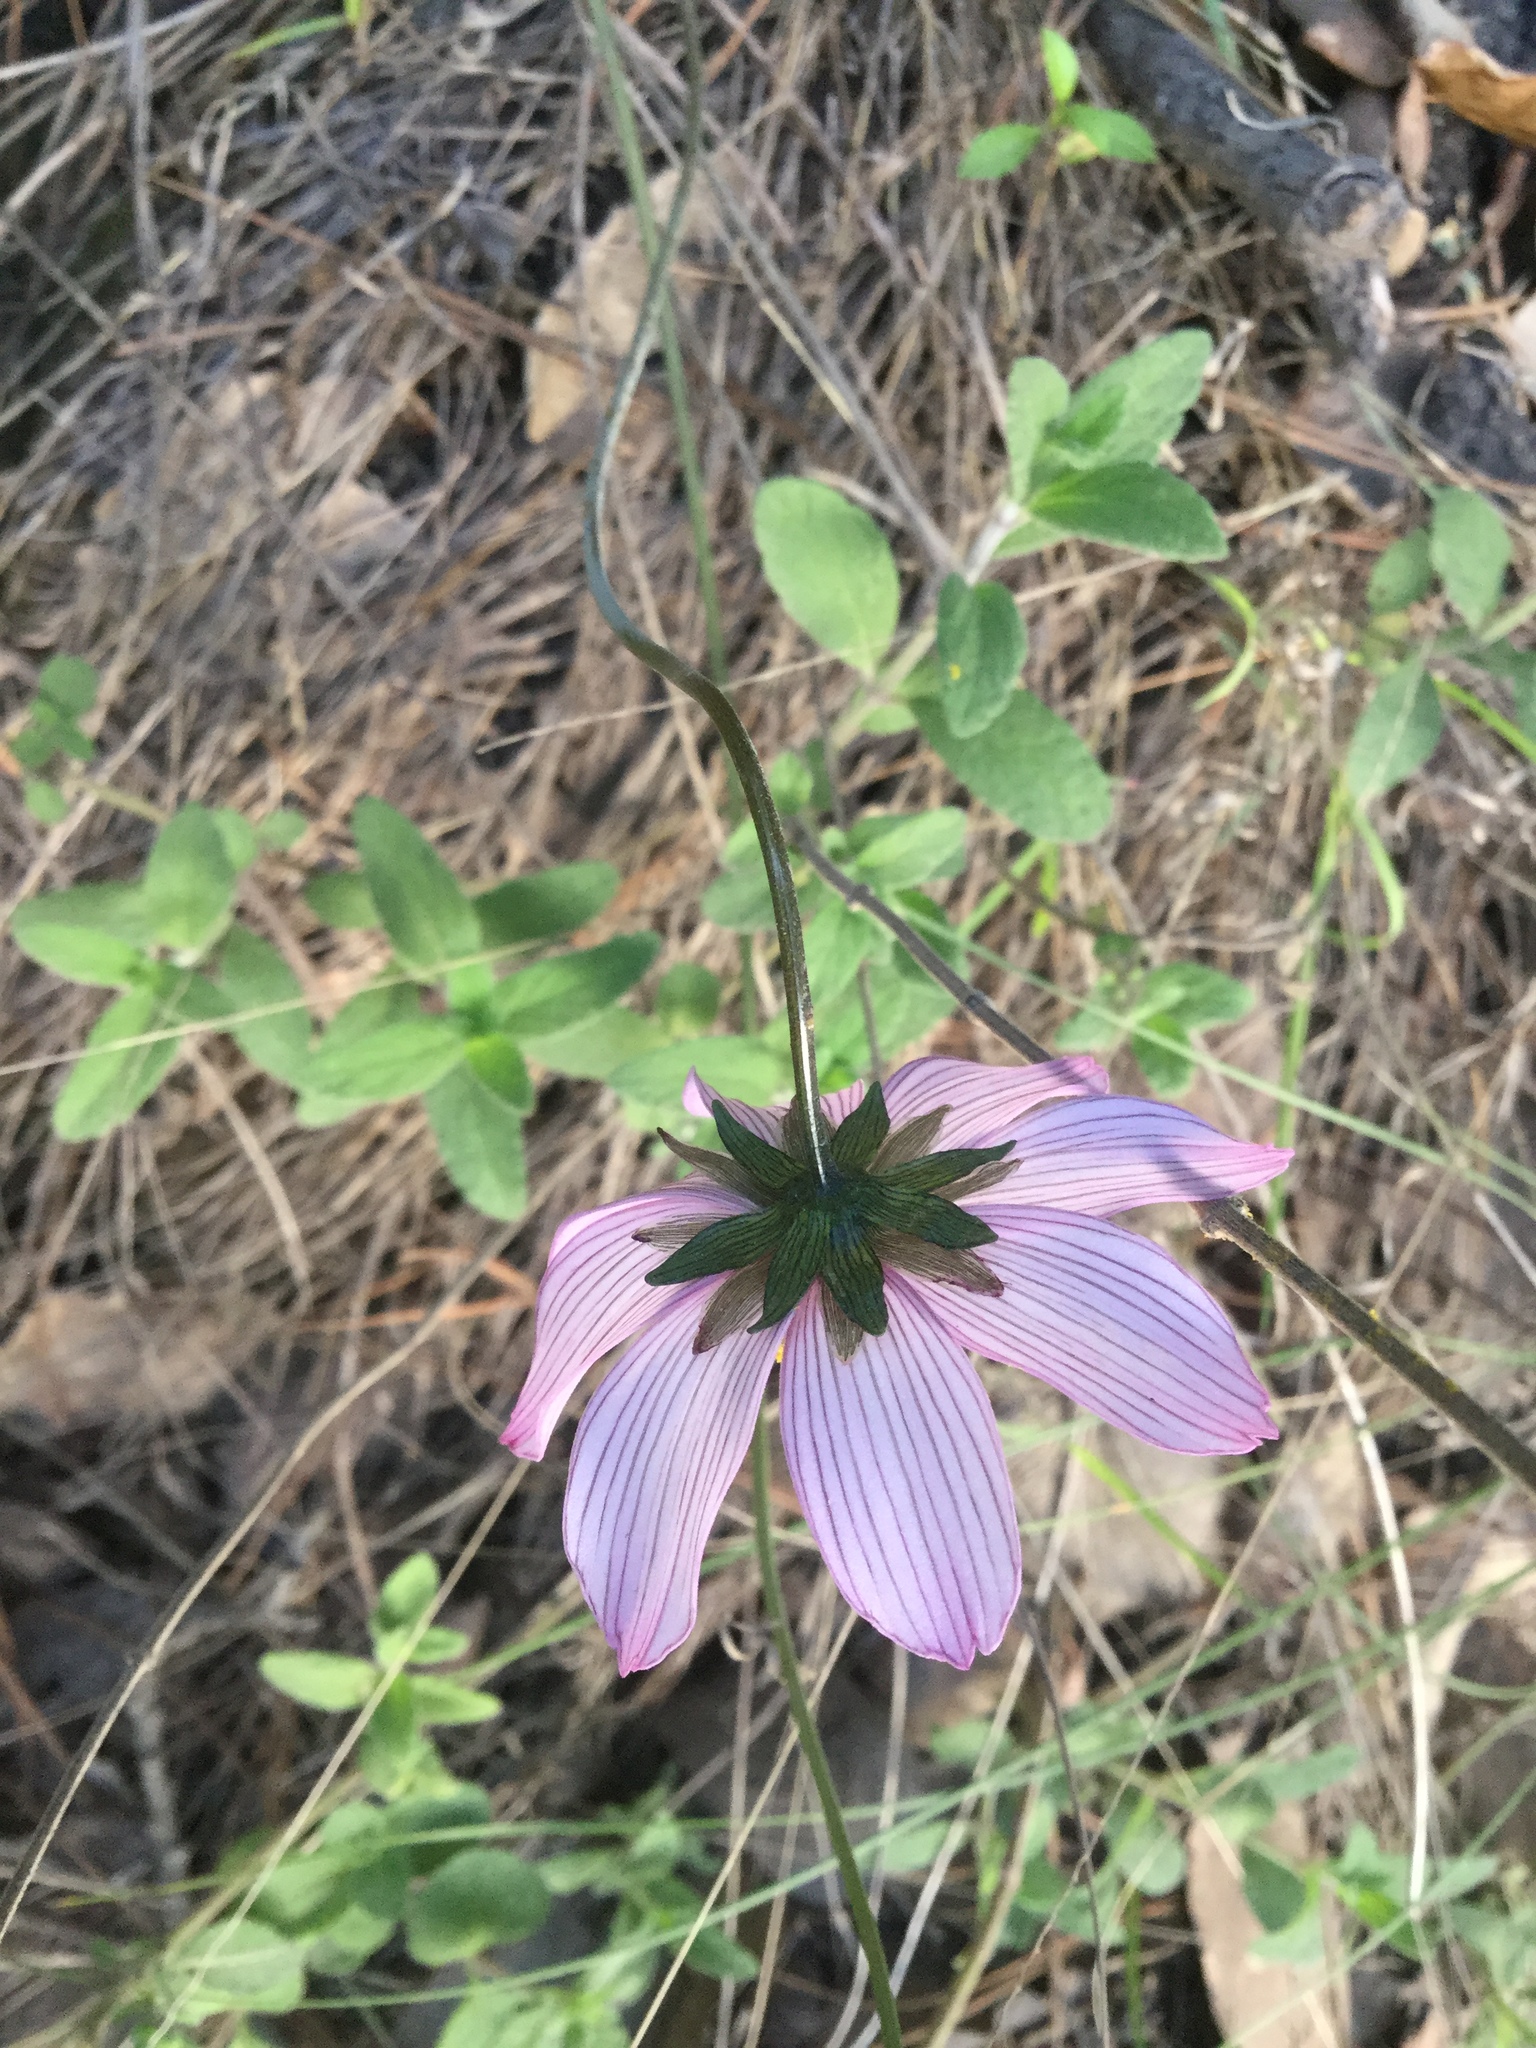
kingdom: Plantae
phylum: Tracheophyta
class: Magnoliopsida
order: Asterales
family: Asteraceae
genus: Cosmos
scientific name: Cosmos diversifolius
